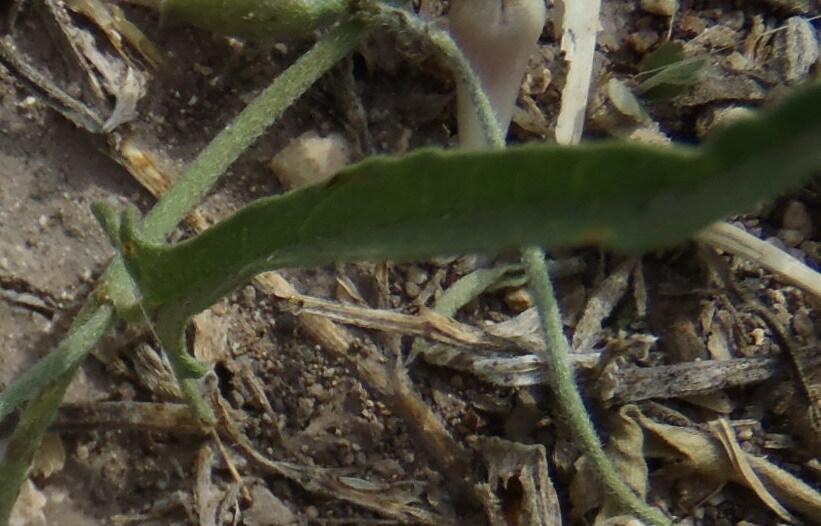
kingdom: Plantae
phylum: Tracheophyta
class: Magnoliopsida
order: Solanales
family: Convolvulaceae
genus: Convolvulus
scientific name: Convolvulus equitans
